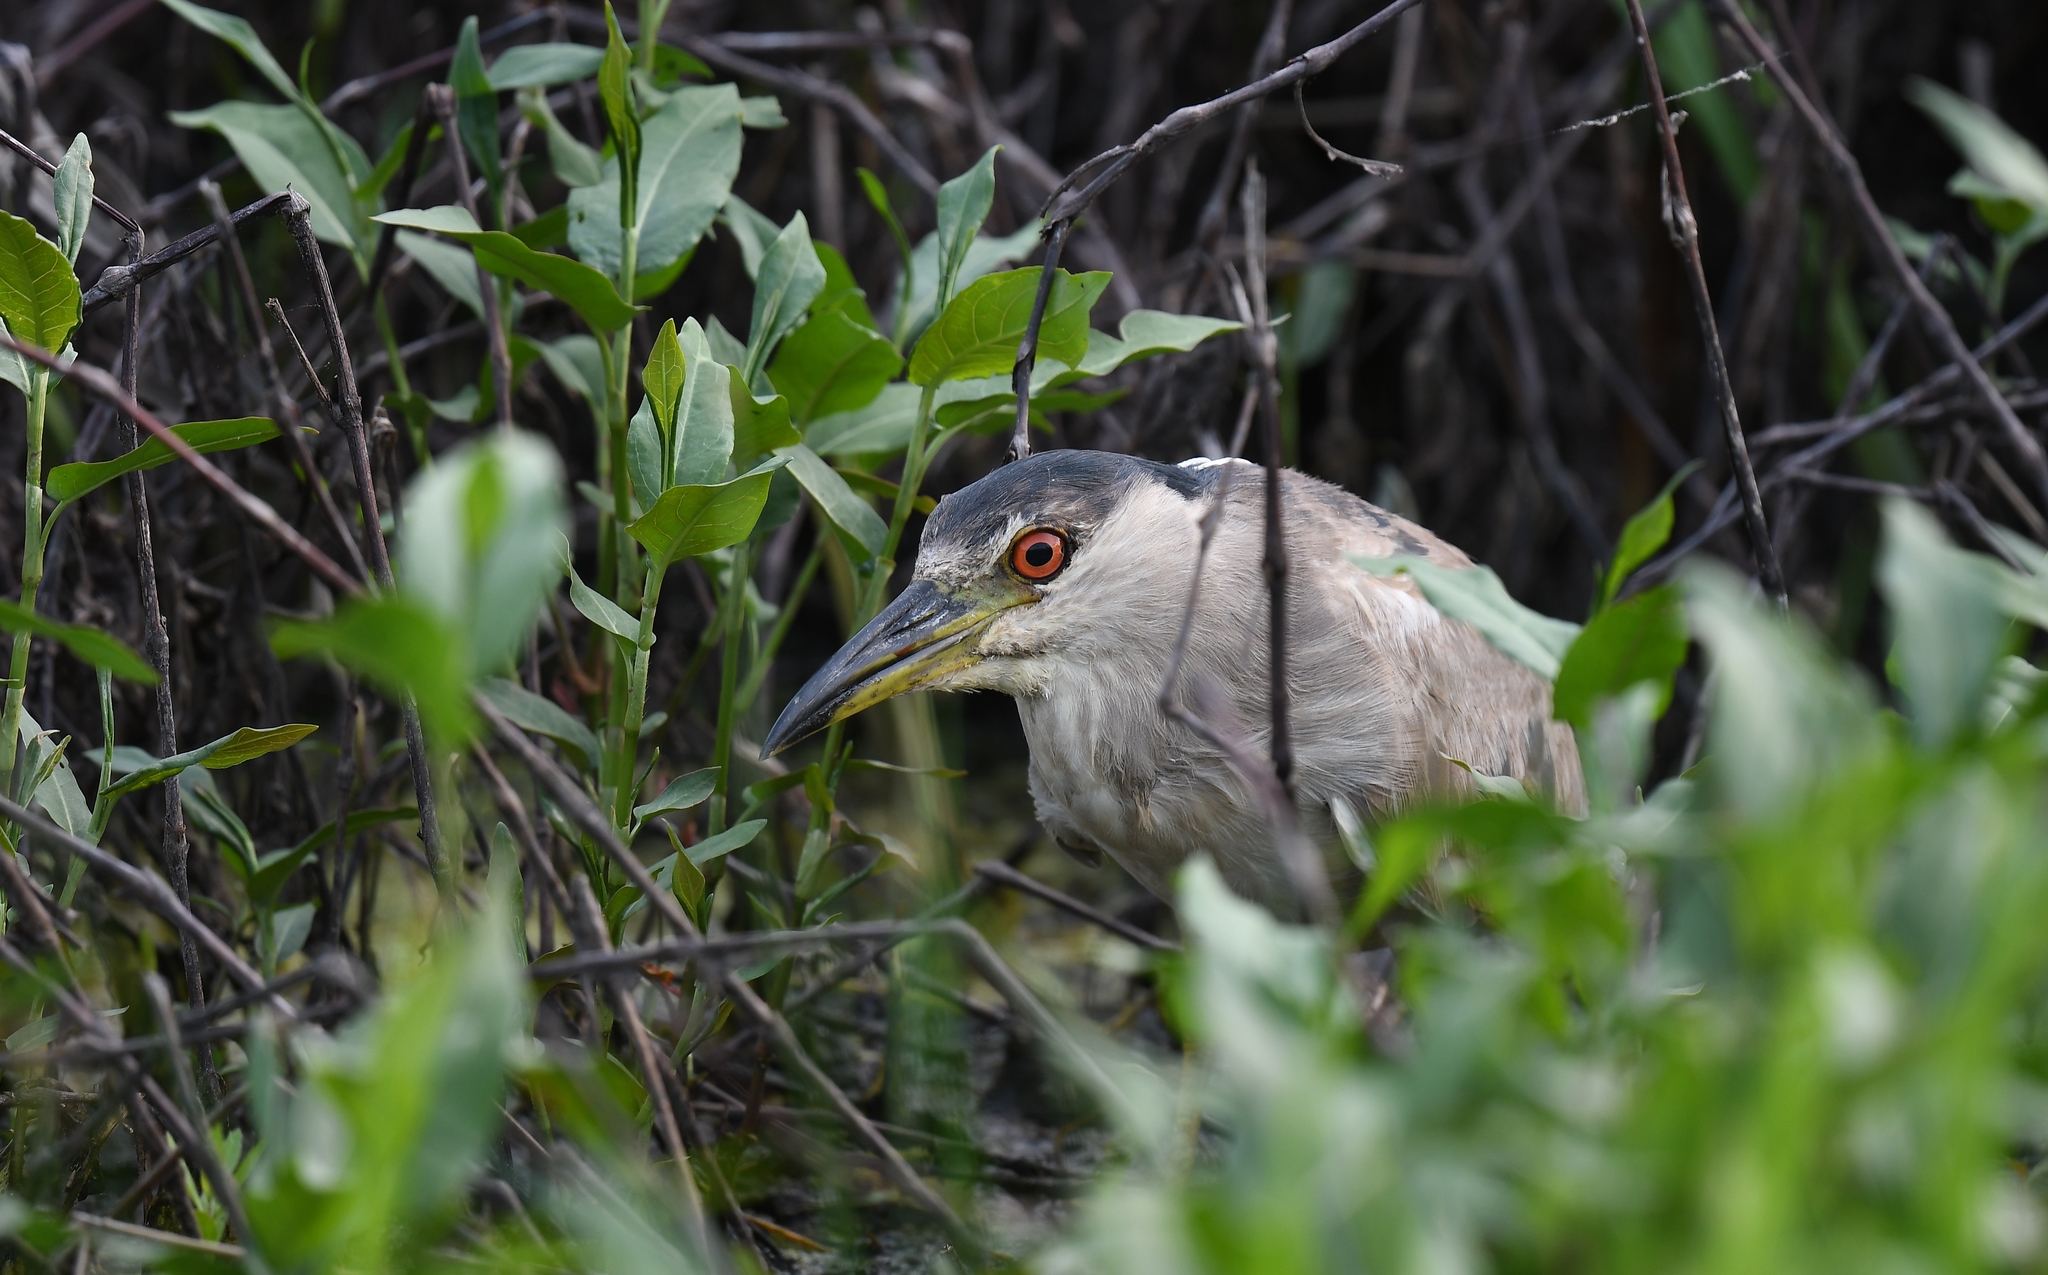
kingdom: Animalia
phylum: Chordata
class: Aves
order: Pelecaniformes
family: Ardeidae
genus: Nycticorax
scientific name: Nycticorax nycticorax
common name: Black-crowned night heron
